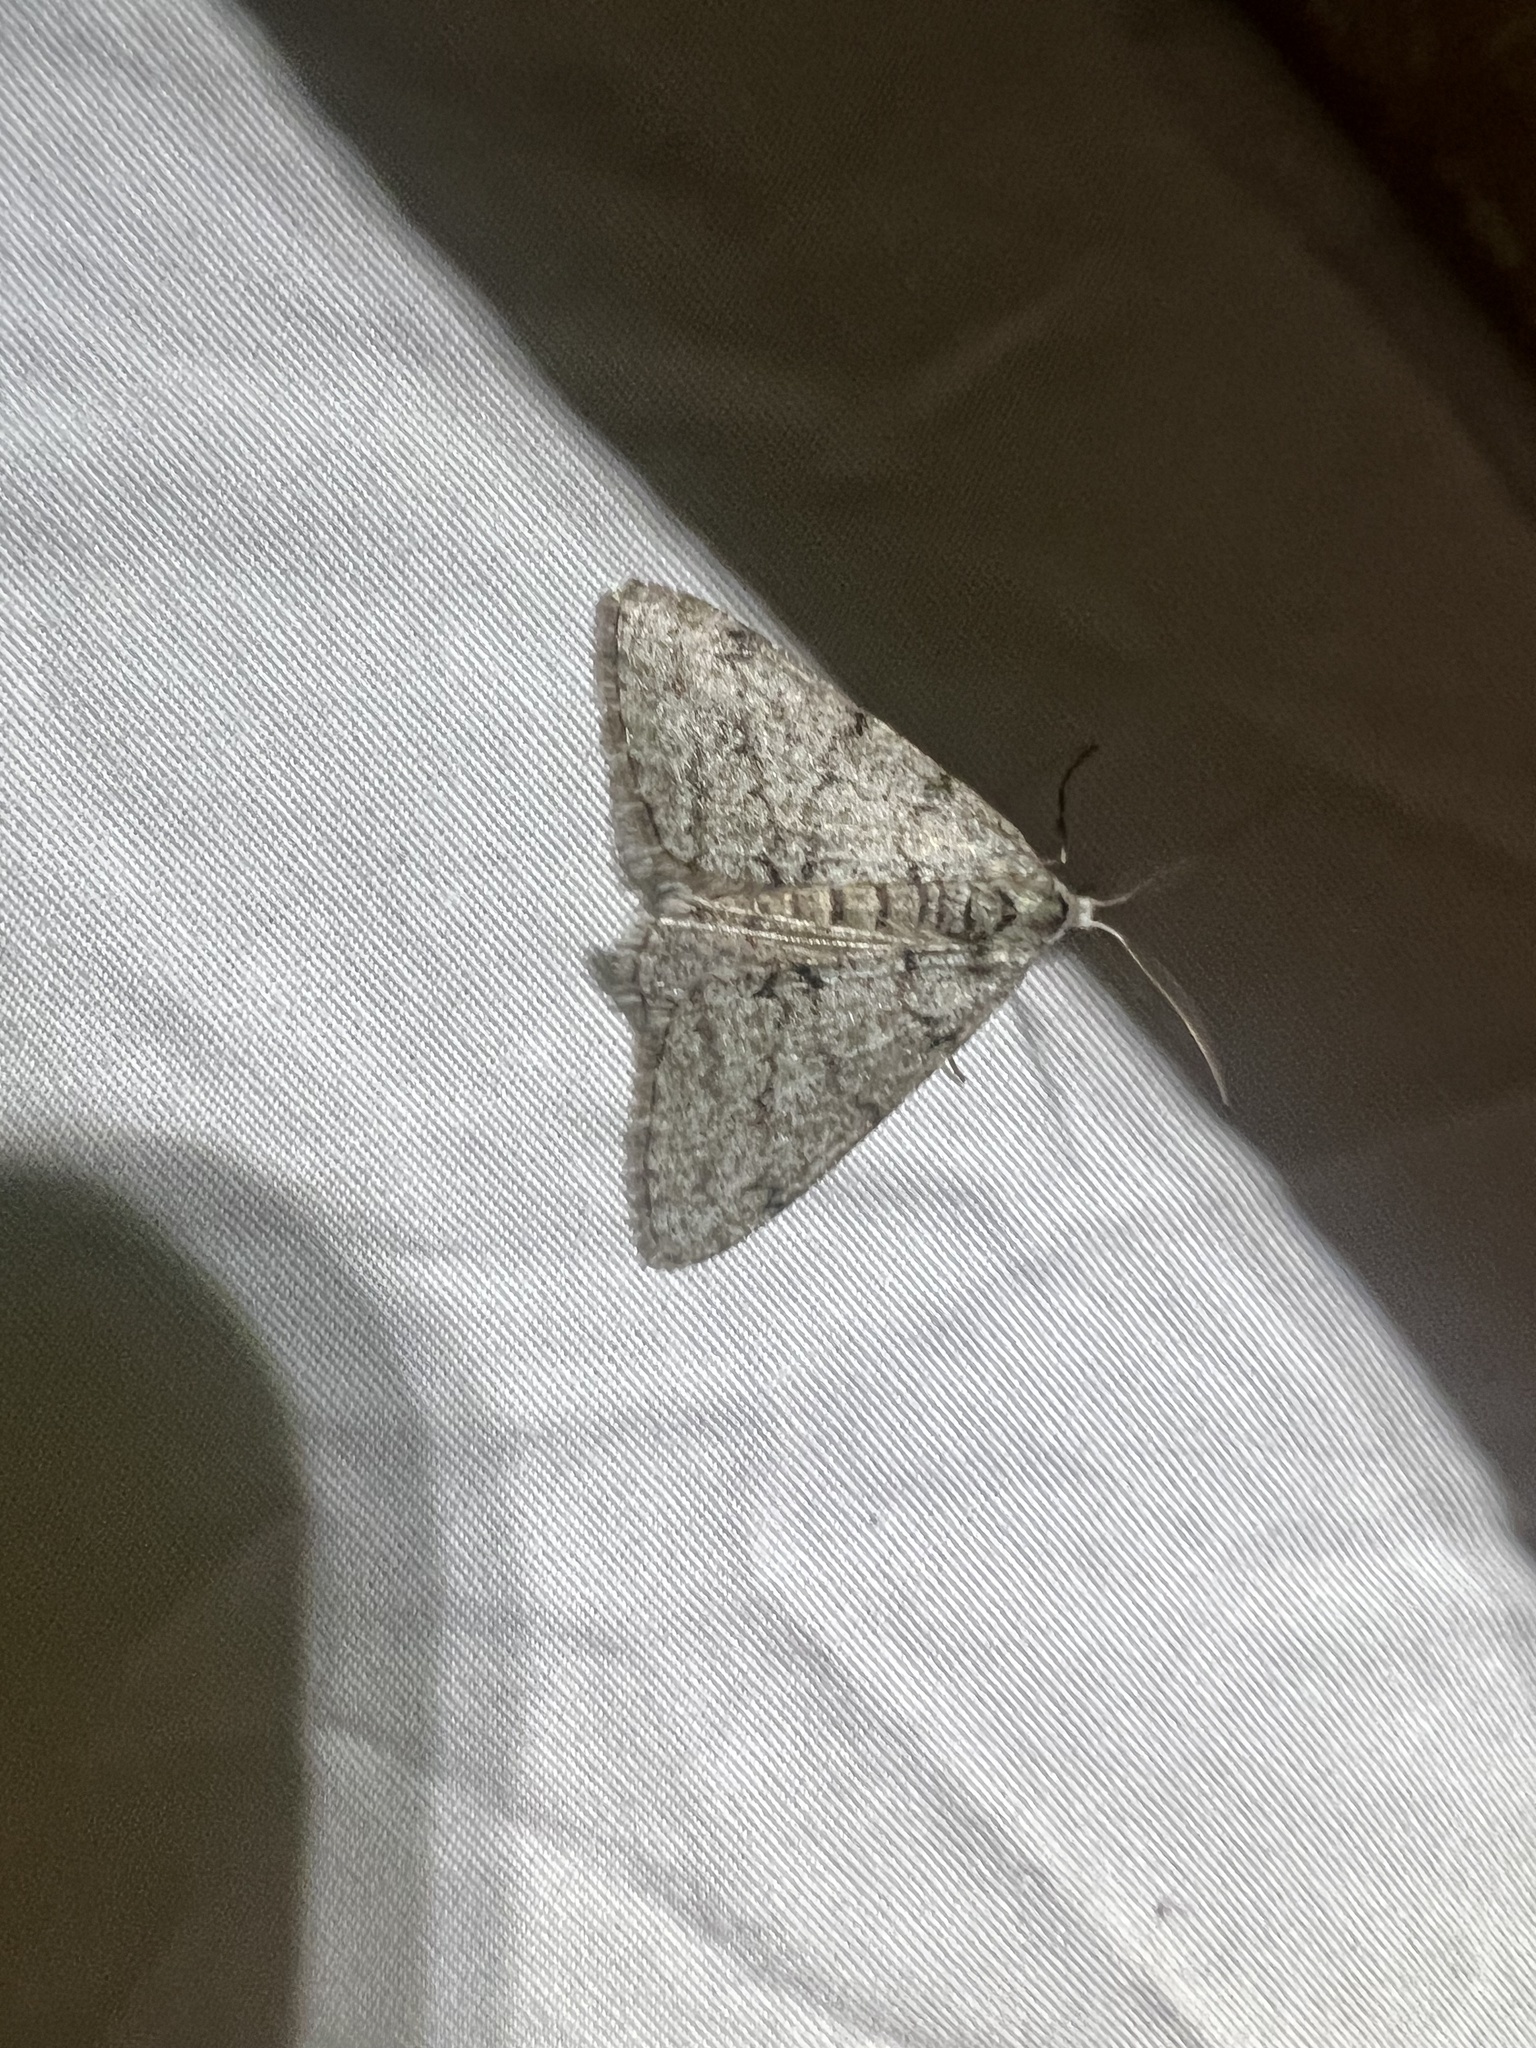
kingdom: Animalia
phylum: Arthropoda
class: Insecta
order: Lepidoptera
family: Geometridae
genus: Phigalia
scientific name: Phigalia strigataria
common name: Small phigalia
